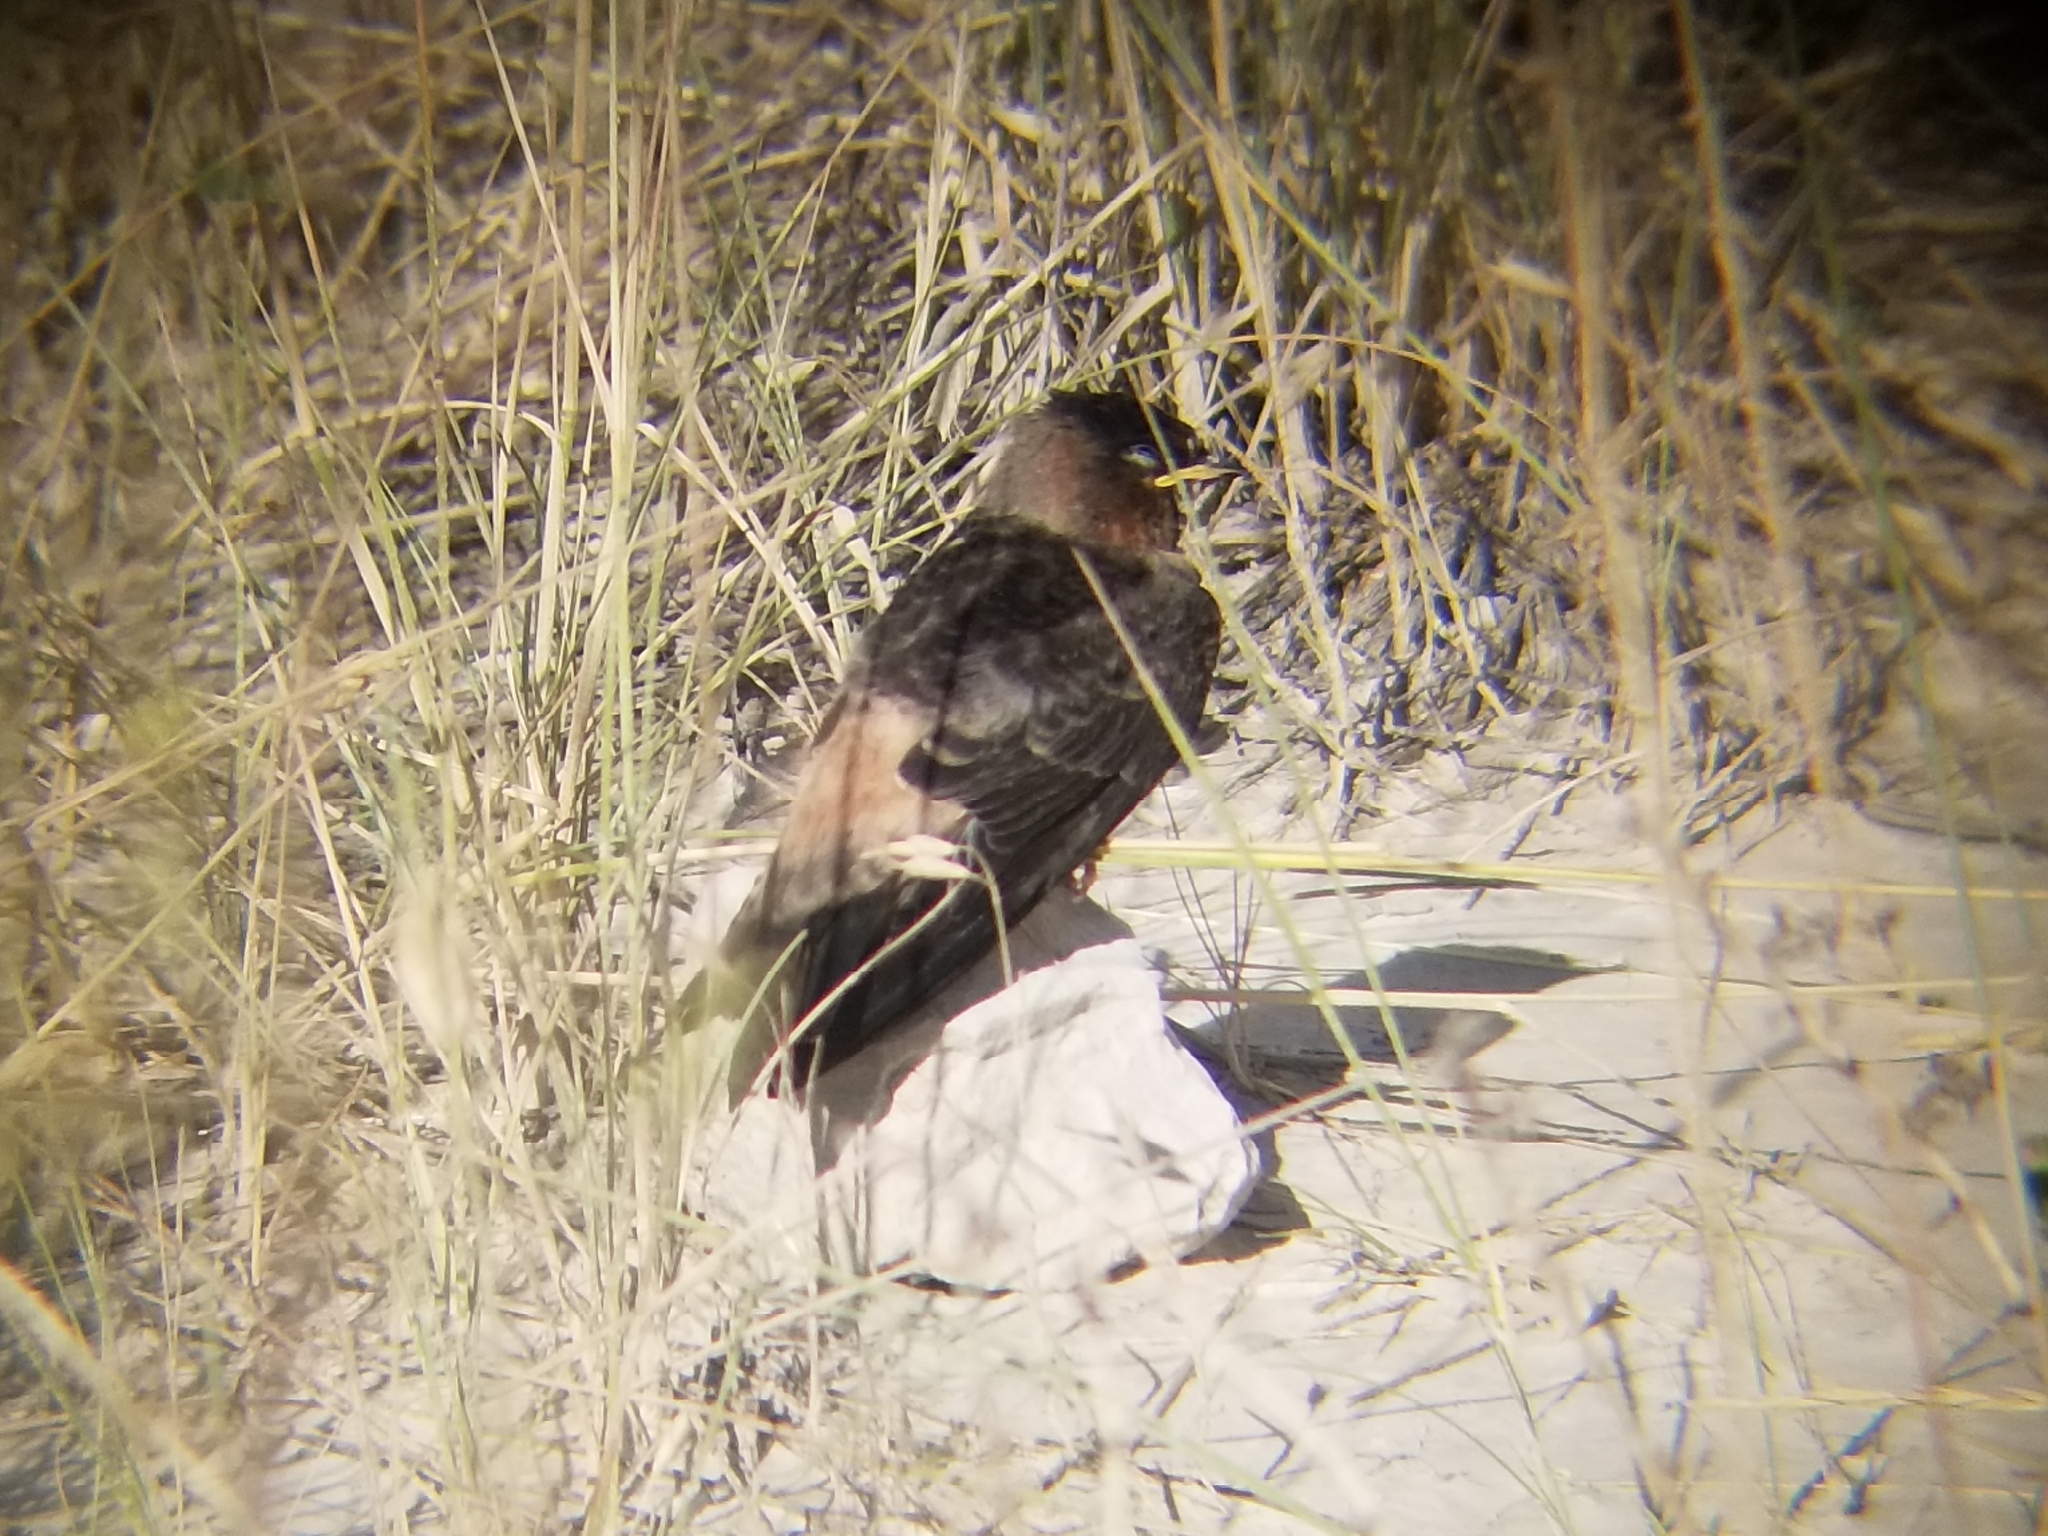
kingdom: Animalia
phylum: Chordata
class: Aves
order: Passeriformes
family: Hirundinidae
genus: Petrochelidon
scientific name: Petrochelidon pyrrhonota
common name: American cliff swallow
